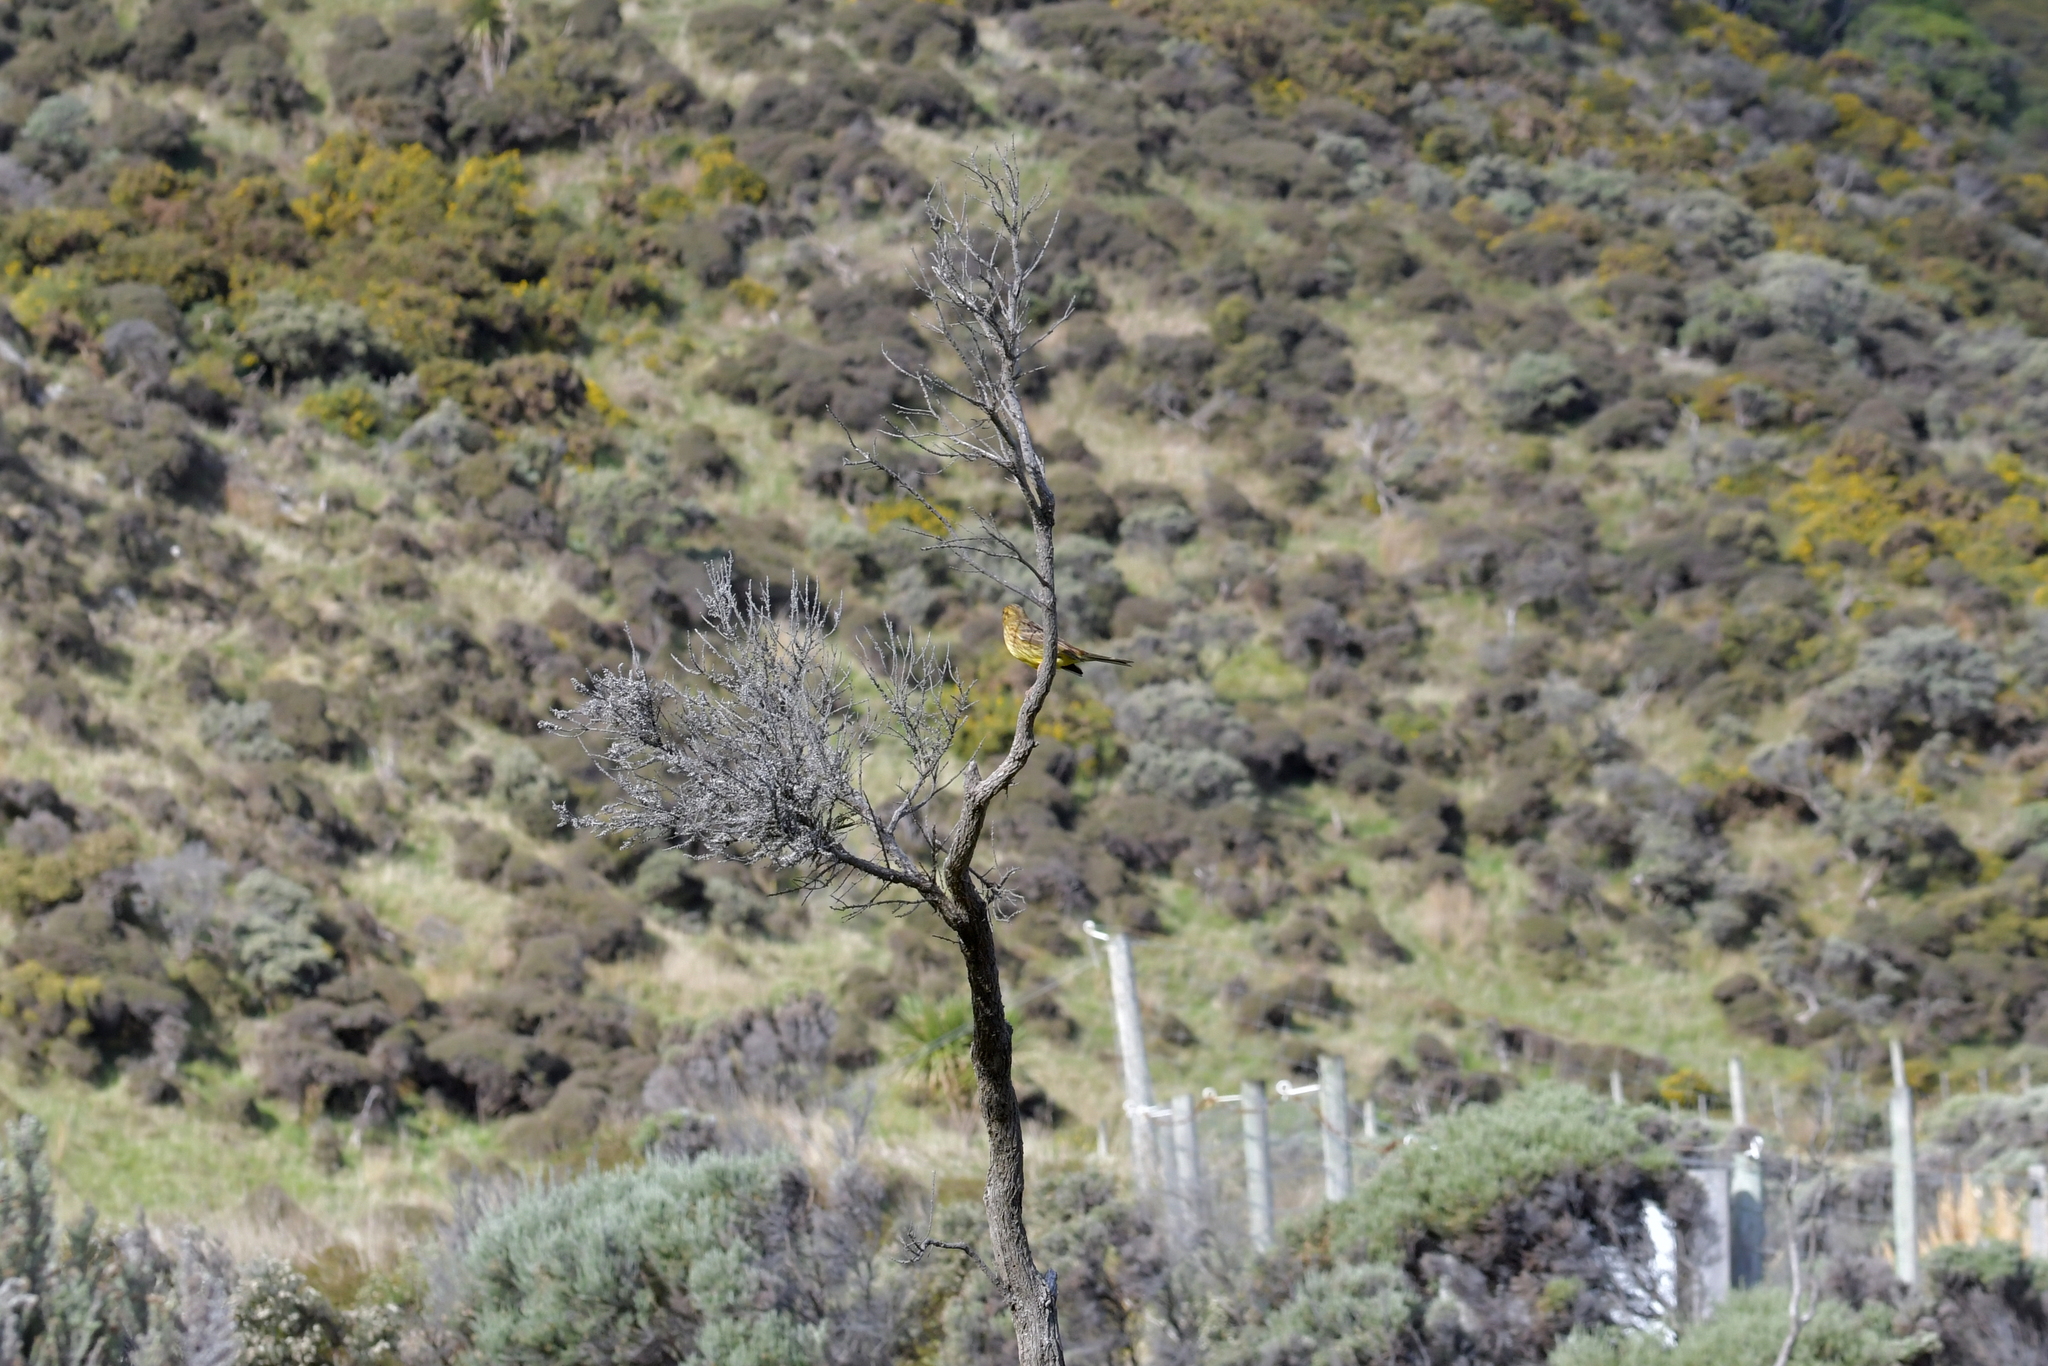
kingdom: Animalia
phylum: Chordata
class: Aves
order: Passeriformes
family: Emberizidae
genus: Emberiza
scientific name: Emberiza citrinella
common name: Yellowhammer
